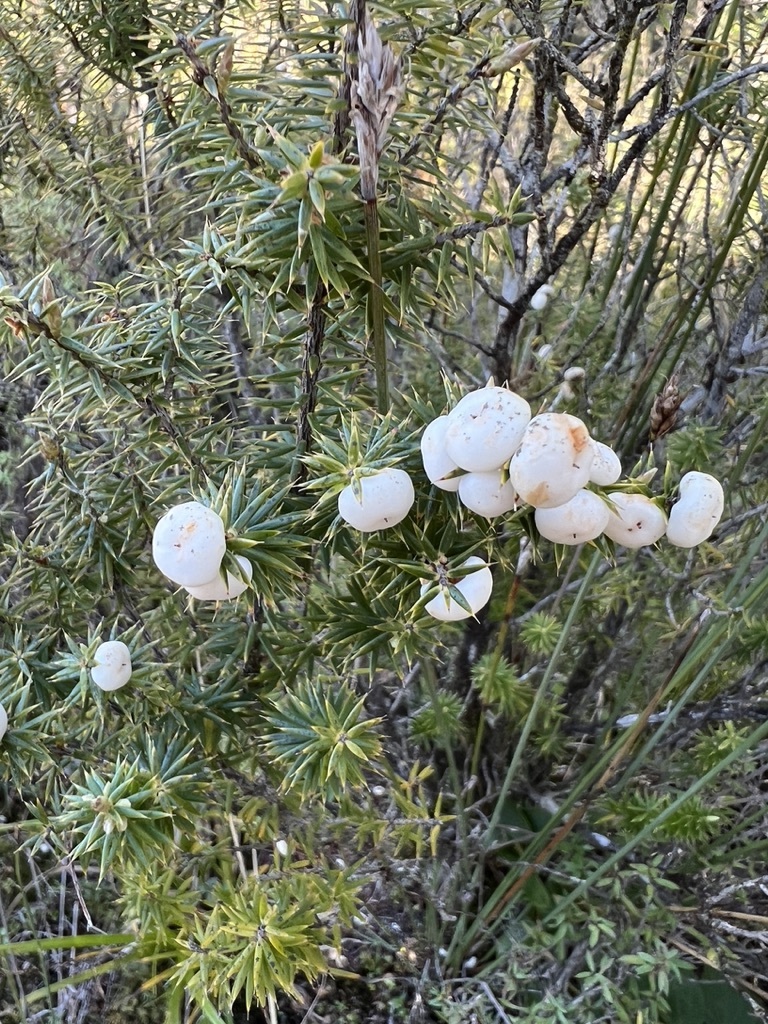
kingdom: Plantae
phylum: Tracheophyta
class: Magnoliopsida
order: Ericales
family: Ericaceae
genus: Leptecophylla
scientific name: Leptecophylla juniperina
